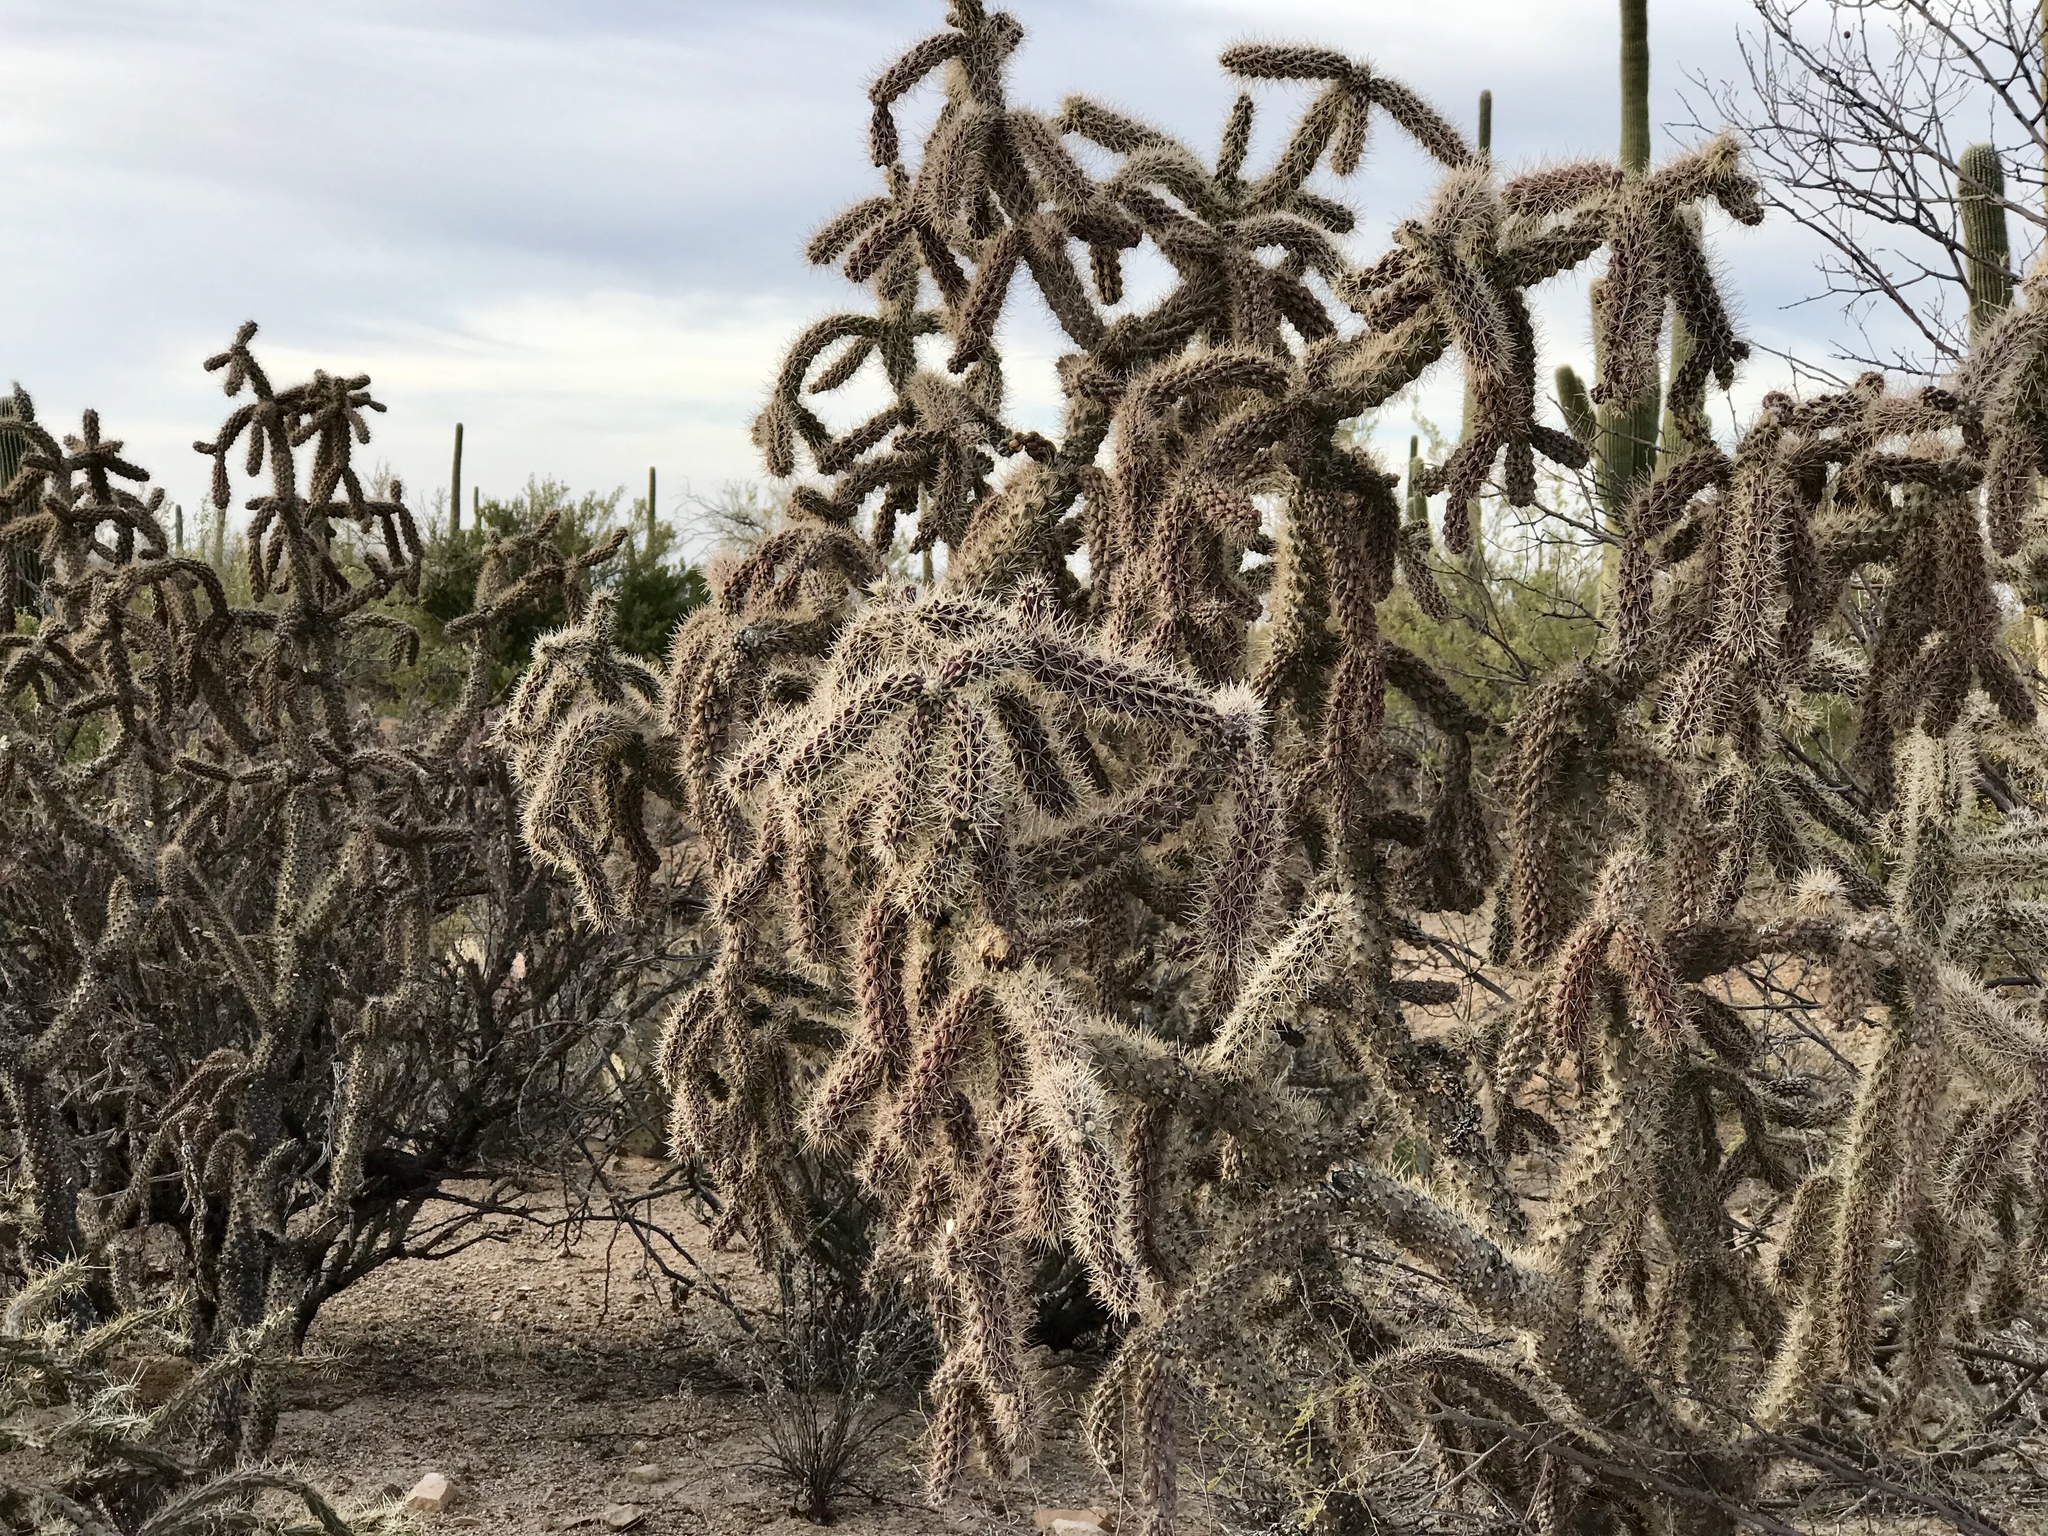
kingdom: Plantae
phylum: Tracheophyta
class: Magnoliopsida
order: Caryophyllales
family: Cactaceae
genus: Cylindropuntia
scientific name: Cylindropuntia imbricata
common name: Candelabrum cactus
